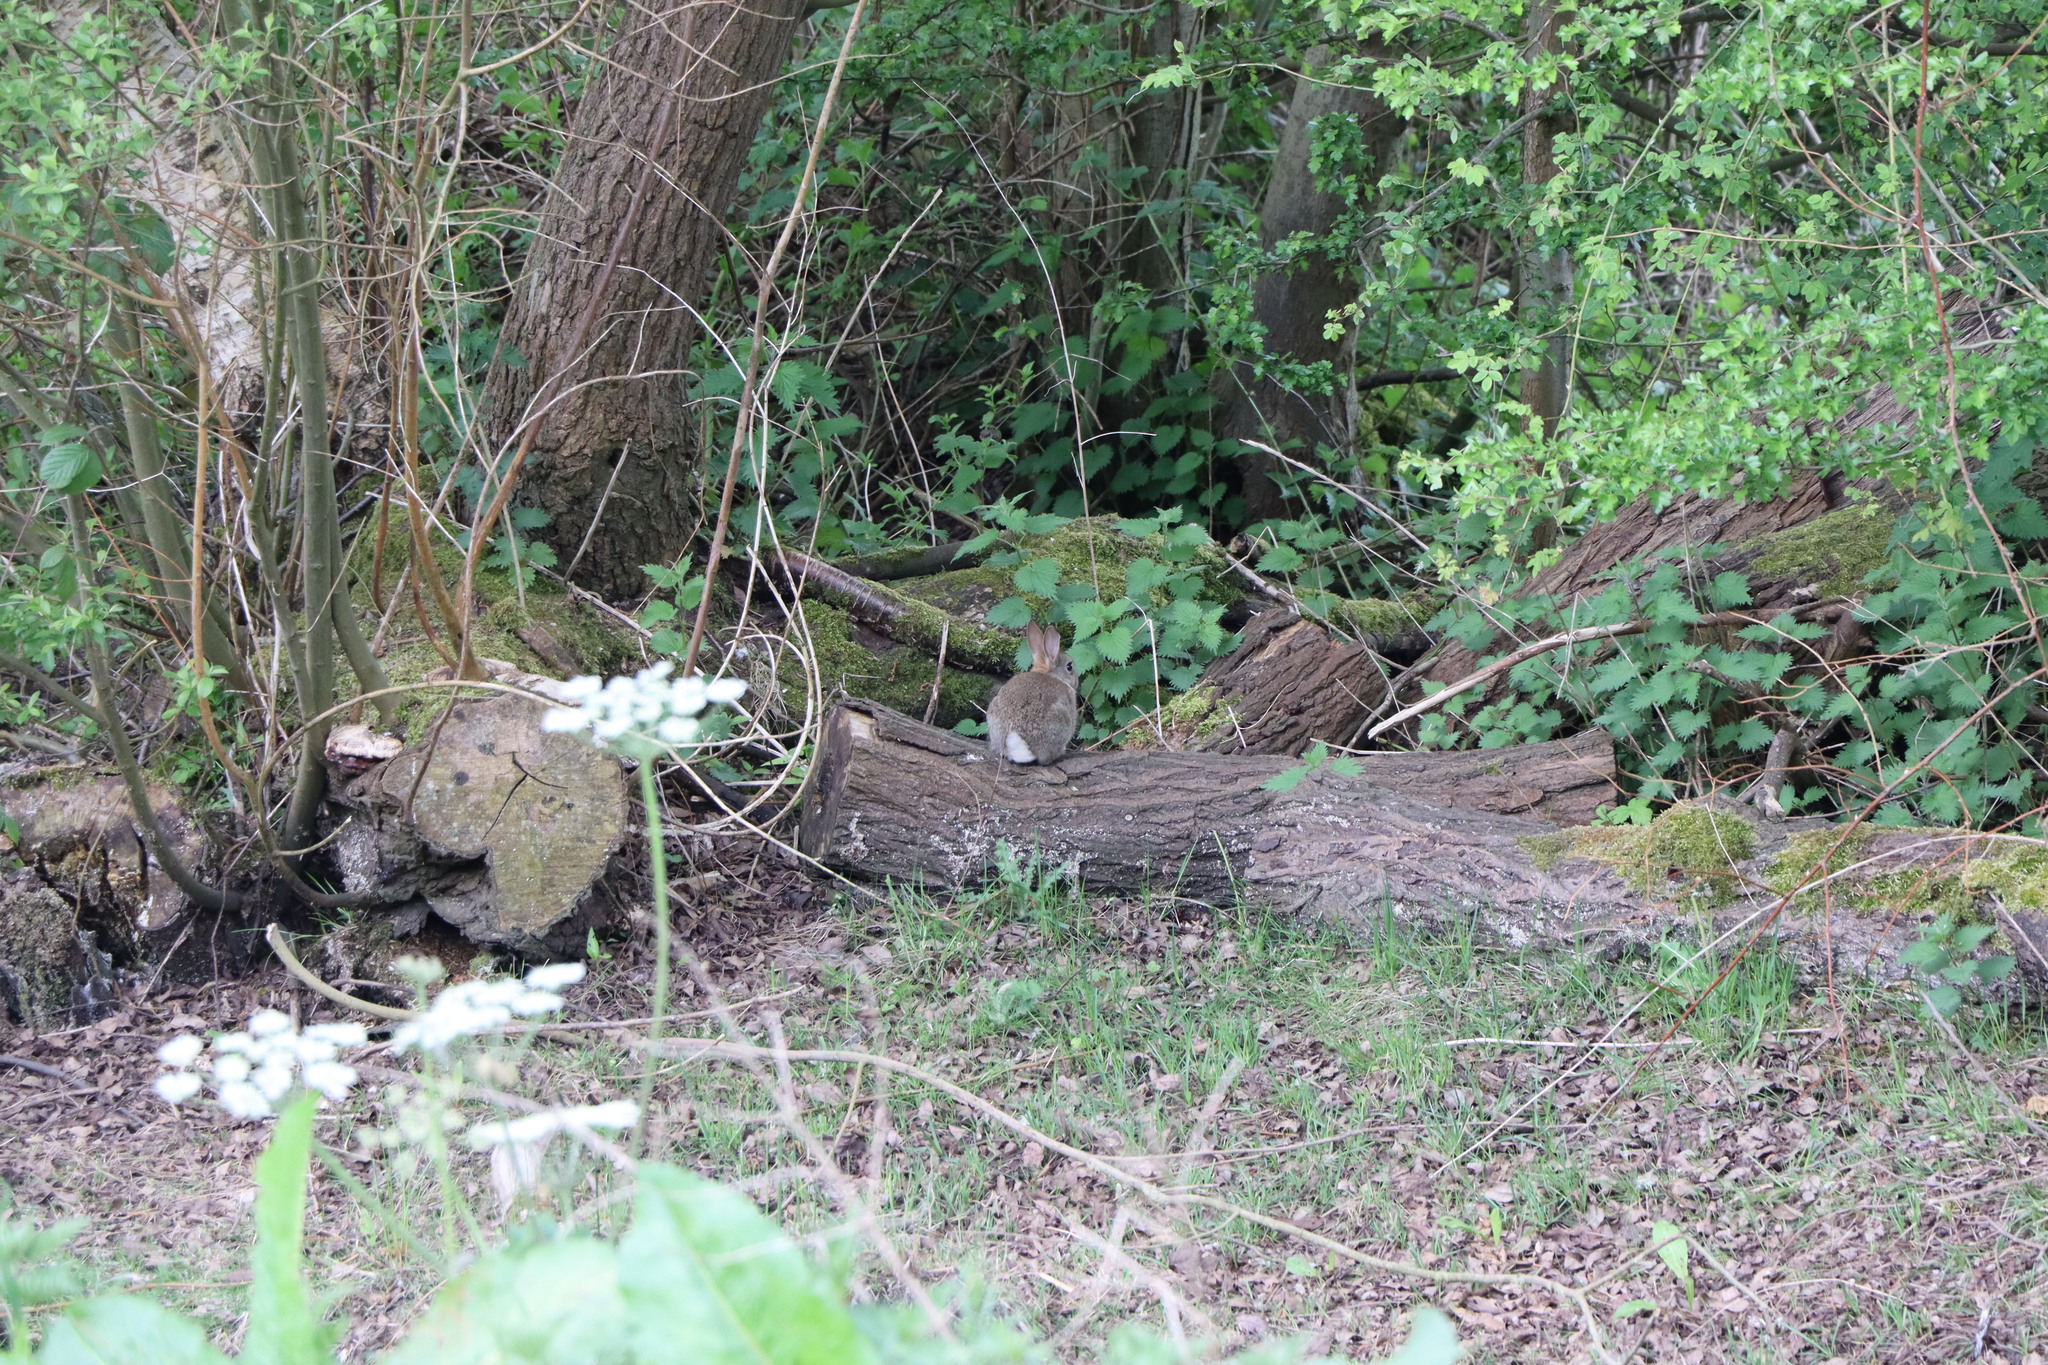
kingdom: Animalia
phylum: Chordata
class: Mammalia
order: Lagomorpha
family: Leporidae
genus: Oryctolagus
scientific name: Oryctolagus cuniculus
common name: European rabbit
